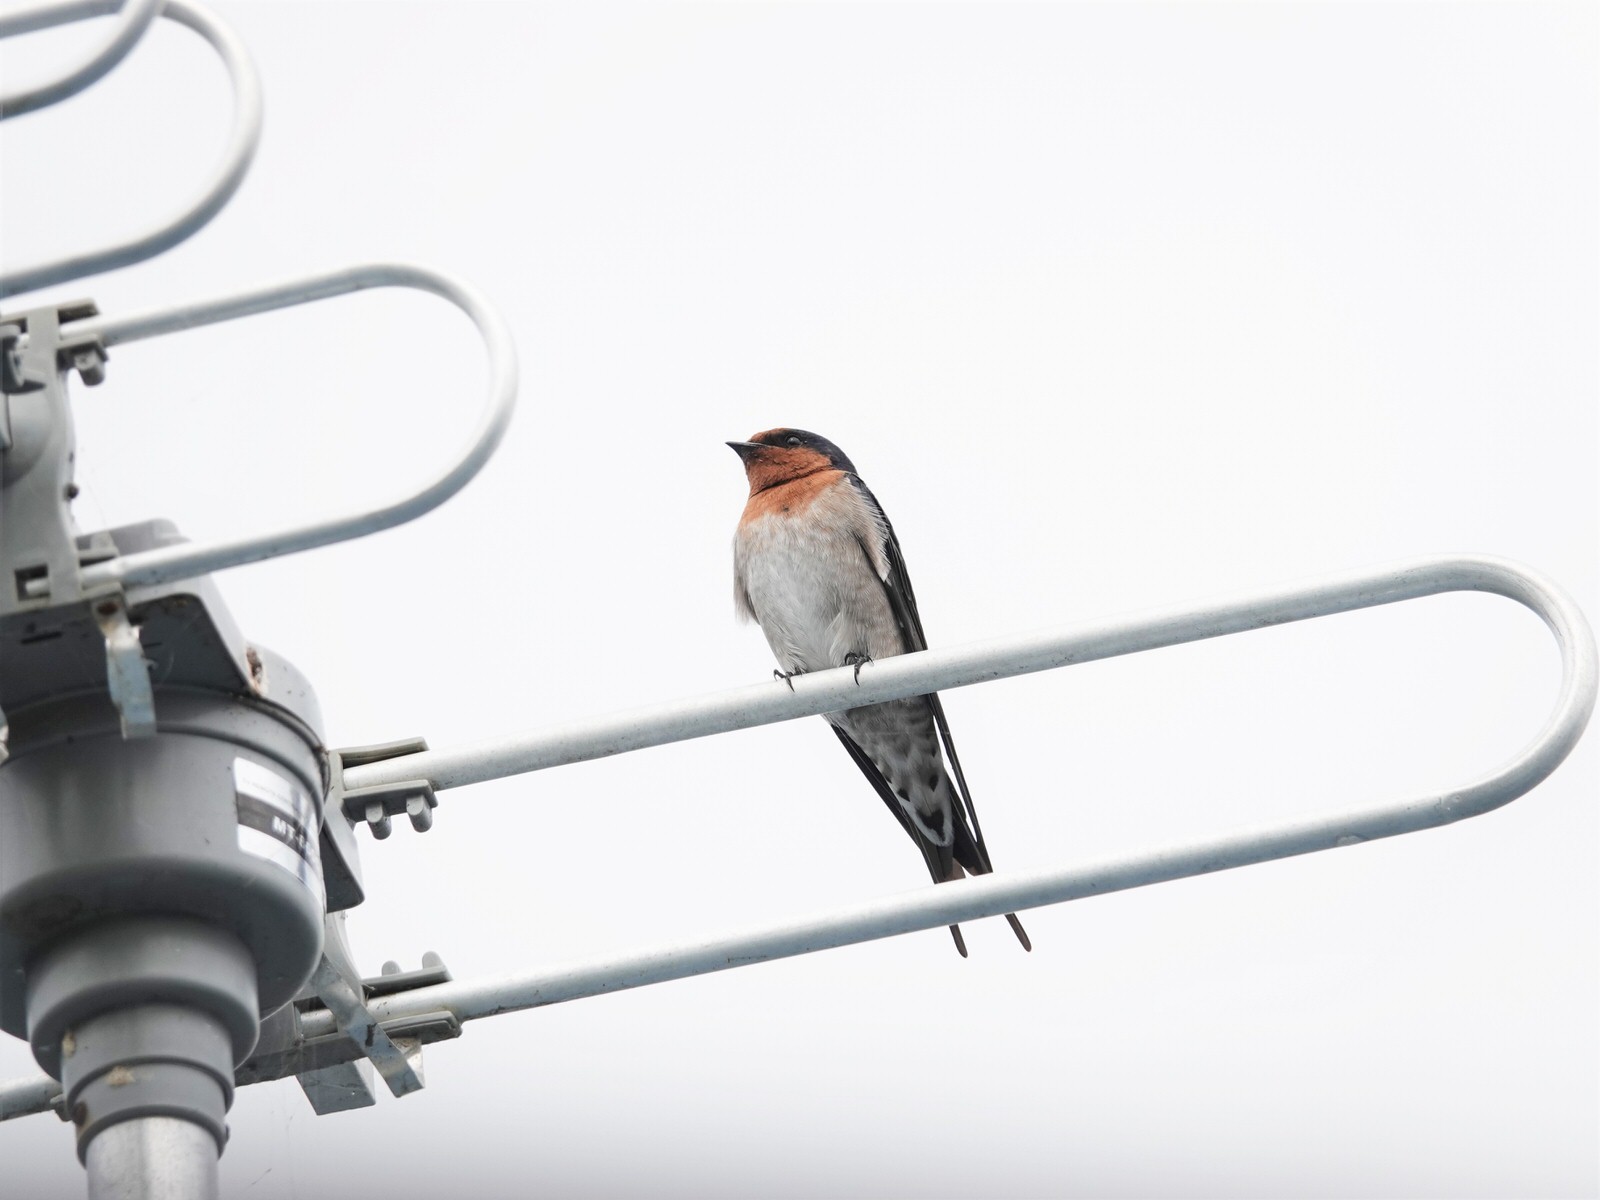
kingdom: Animalia
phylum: Chordata
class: Aves
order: Passeriformes
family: Hirundinidae
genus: Hirundo
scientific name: Hirundo neoxena
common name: Welcome swallow
